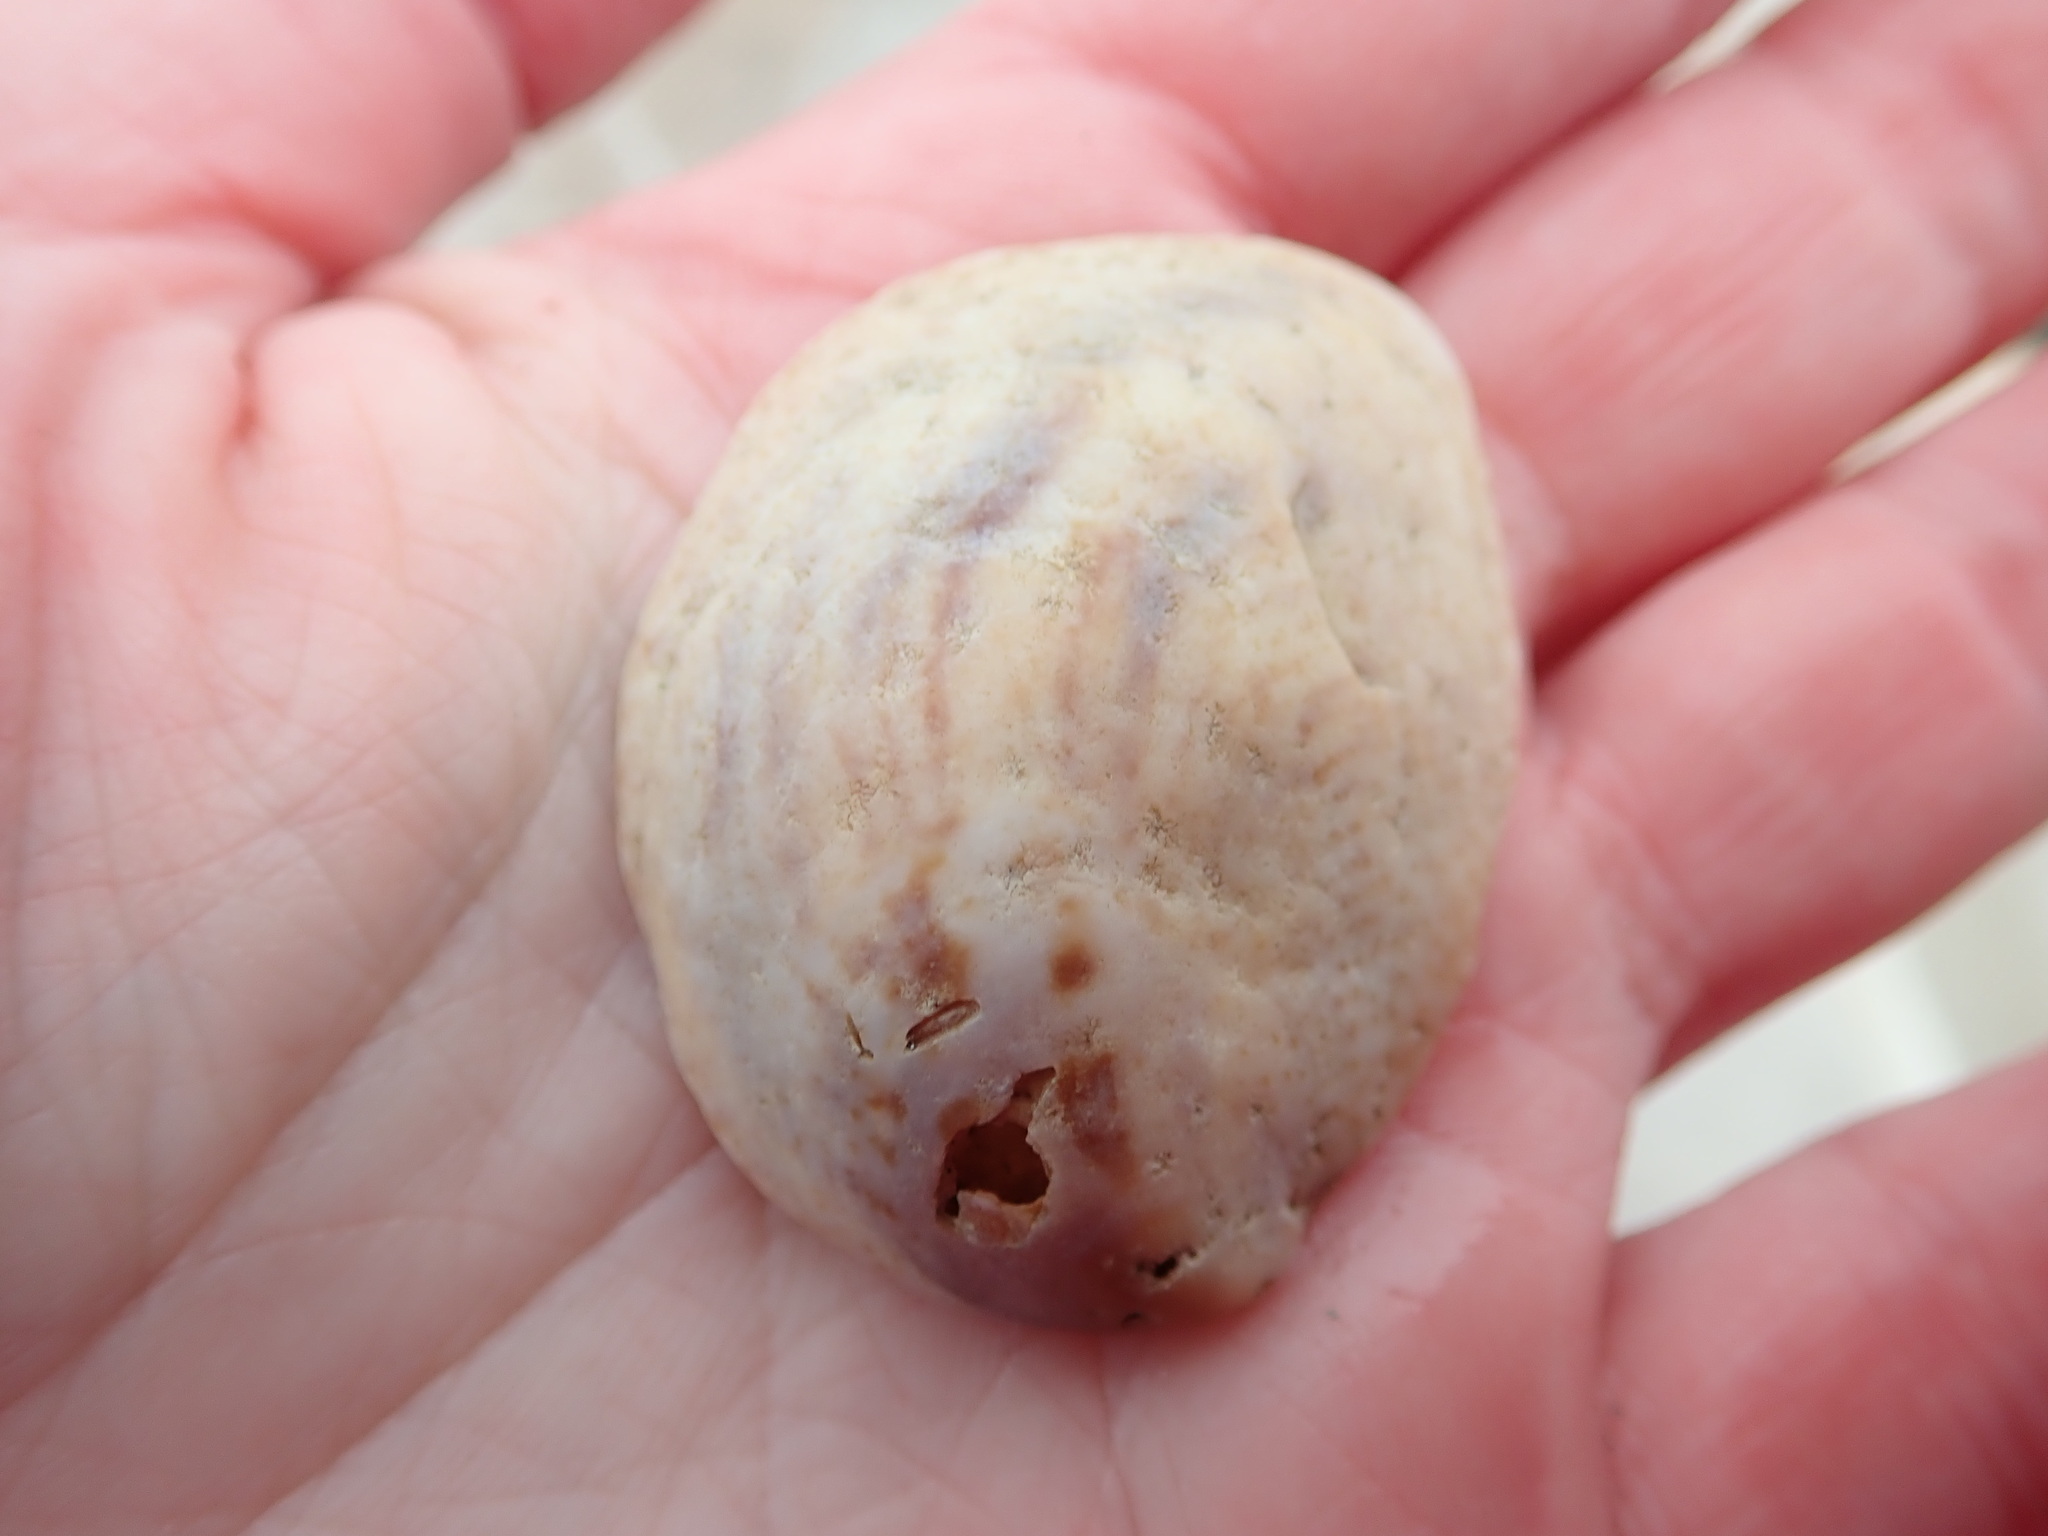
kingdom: Animalia
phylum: Mollusca
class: Gastropoda
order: Littorinimorpha
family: Calyptraeidae
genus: Crepidula
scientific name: Crepidula fornicata
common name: Slipper limpet
